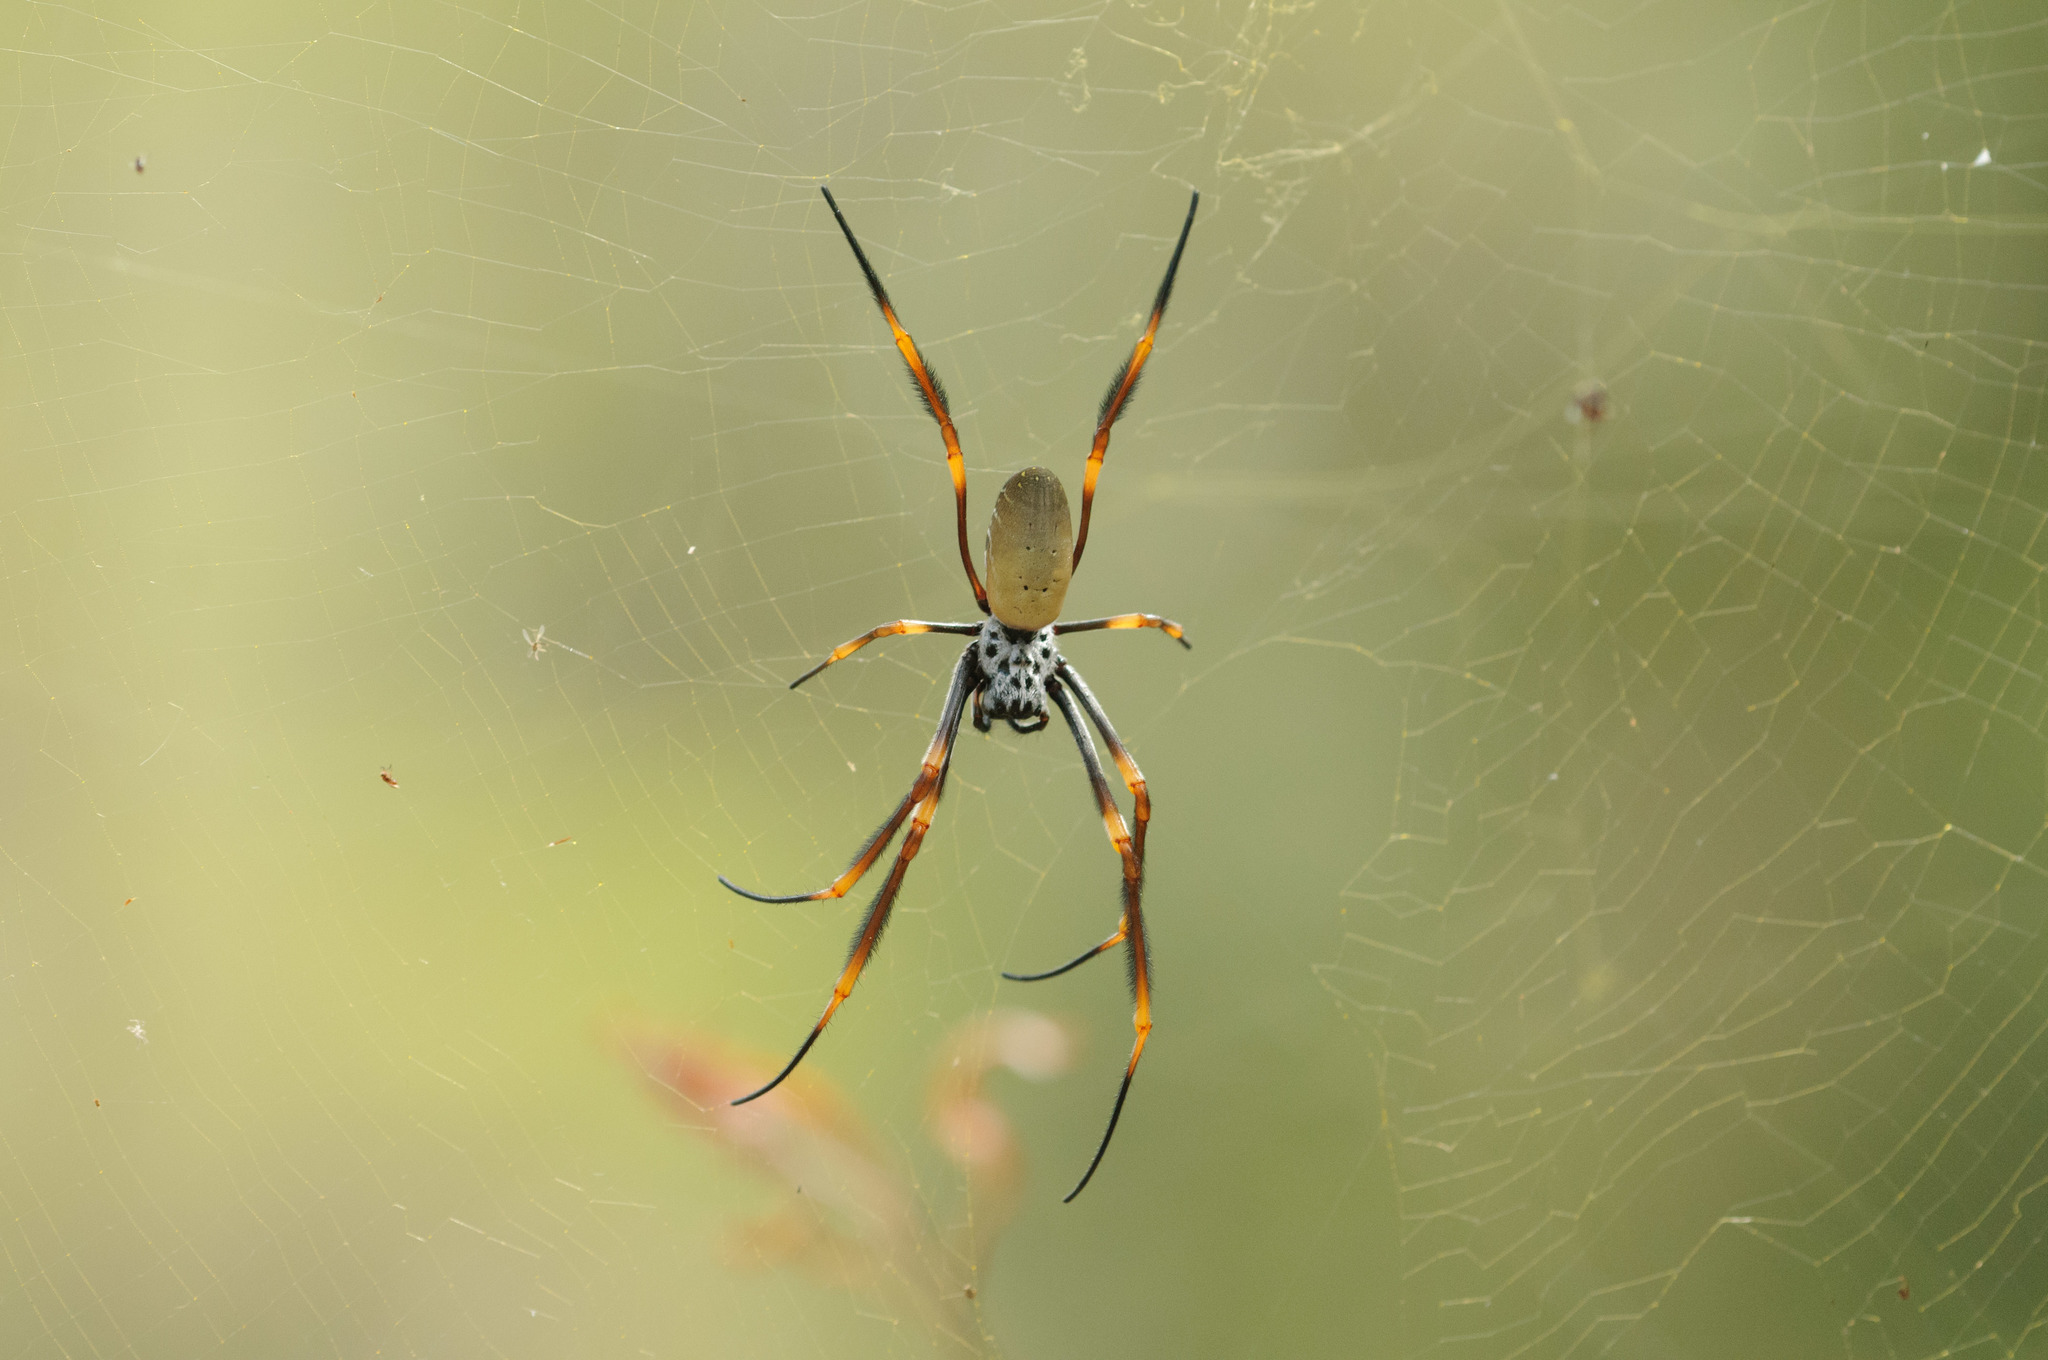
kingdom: Animalia
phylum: Arthropoda
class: Arachnida
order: Araneae
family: Araneidae
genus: Trichonephila
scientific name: Trichonephila plumipes
